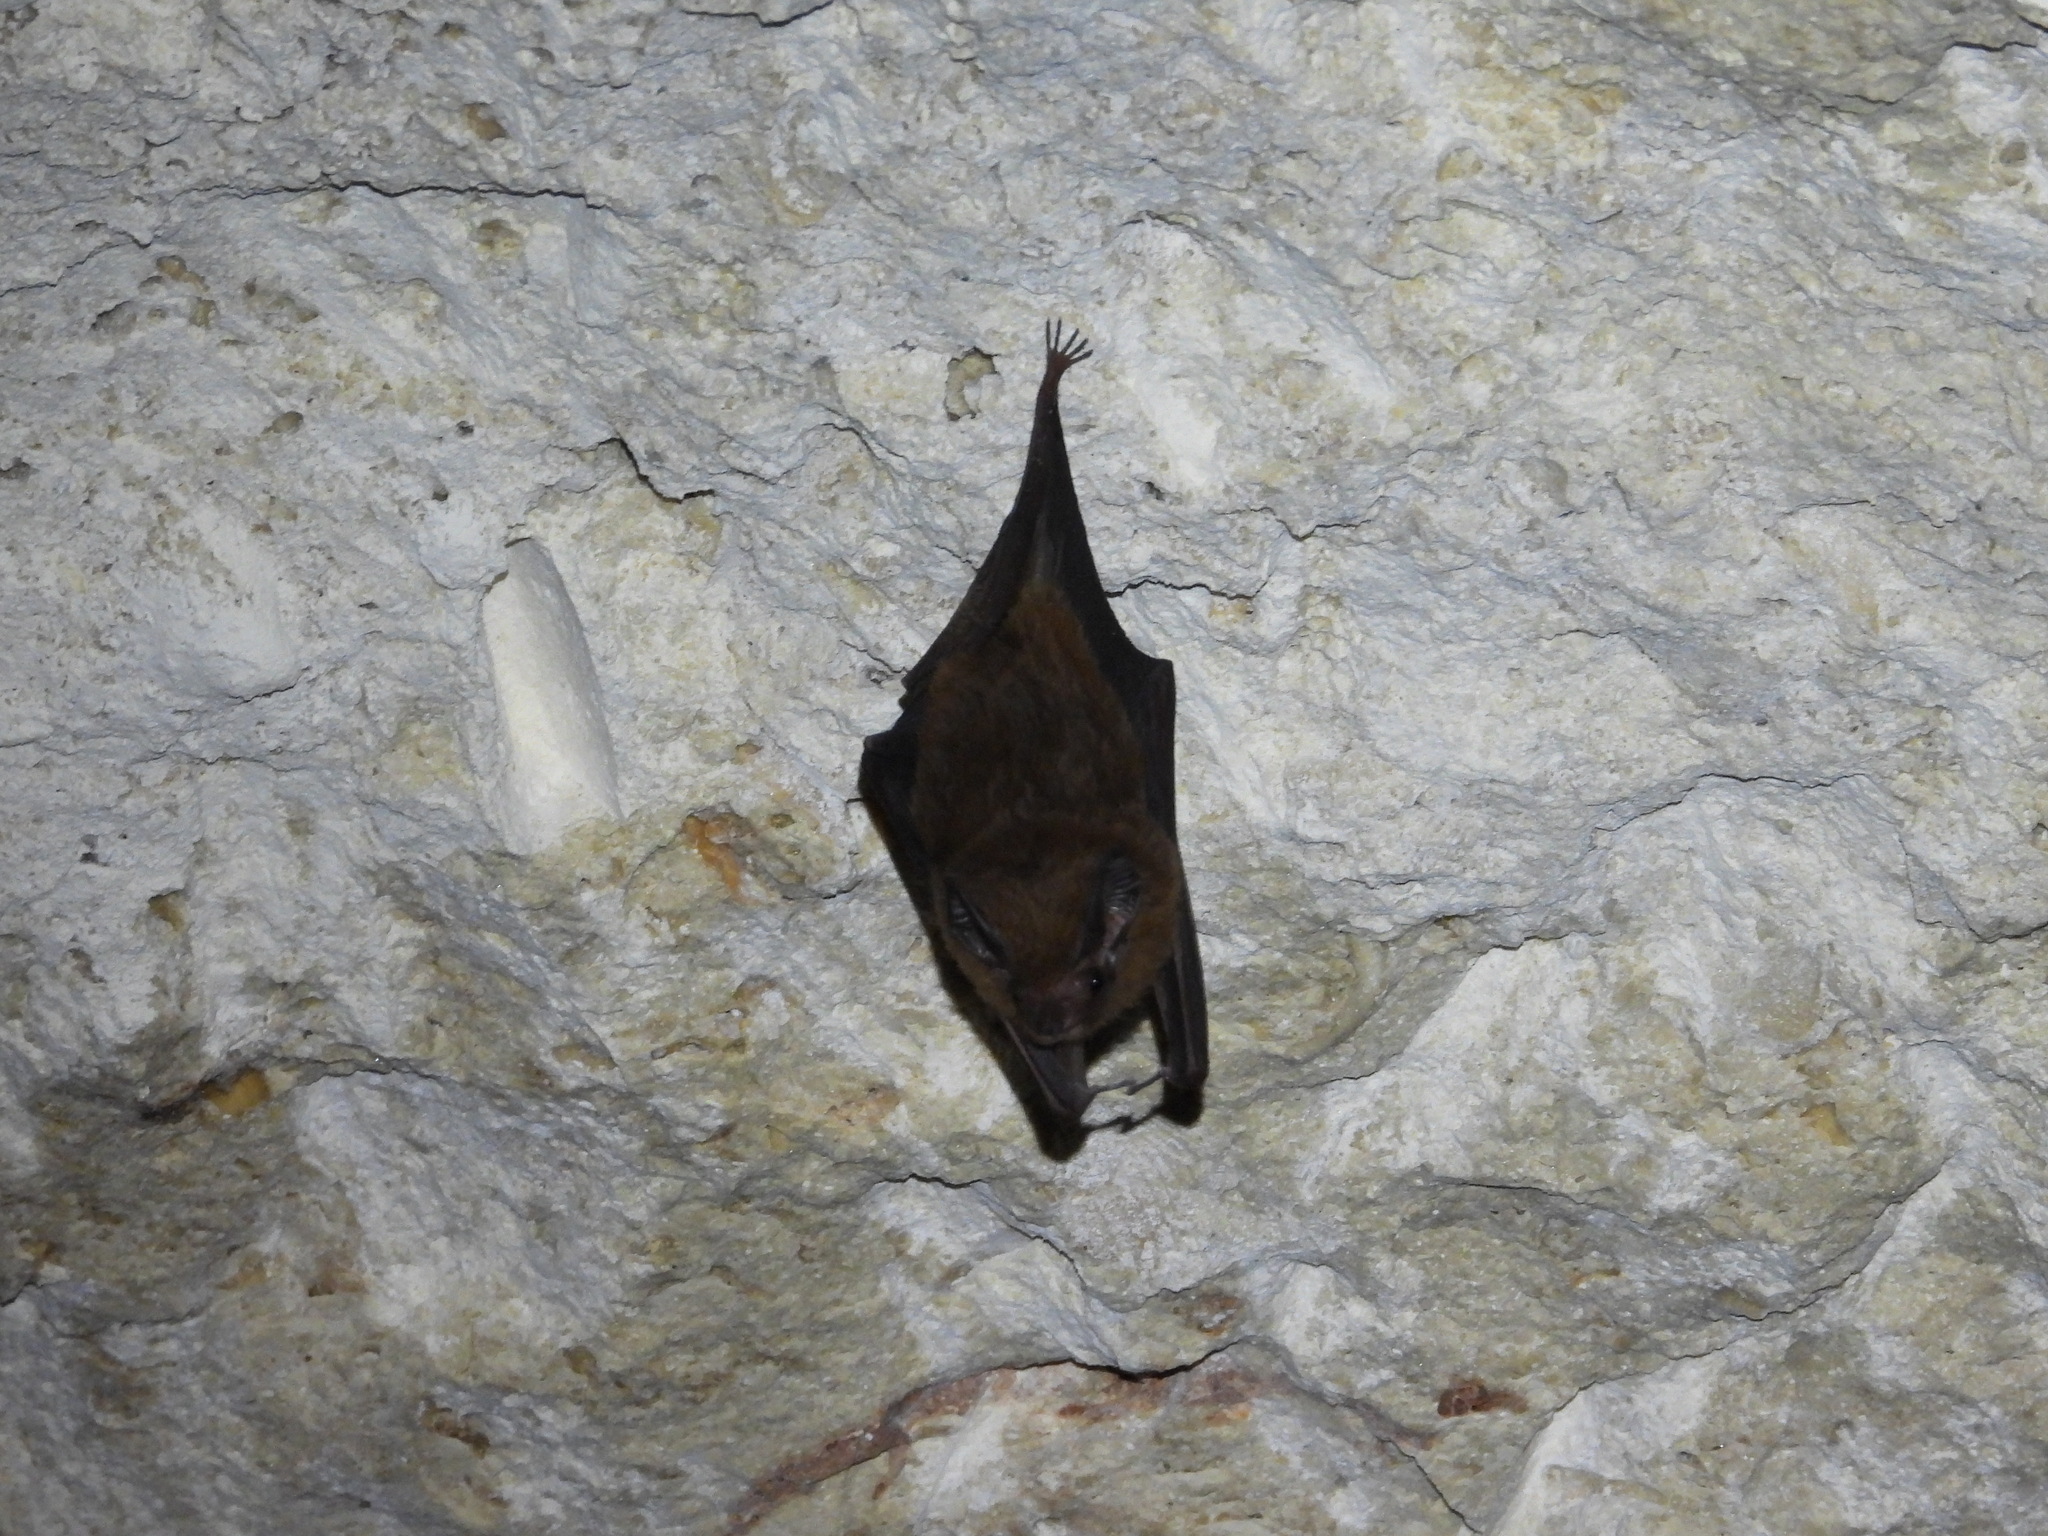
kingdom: Animalia
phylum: Chordata
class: Mammalia
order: Chiroptera
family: Emballonuridae
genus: Peropteryx
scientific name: Peropteryx macrotis
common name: Lesser dog-like bat
